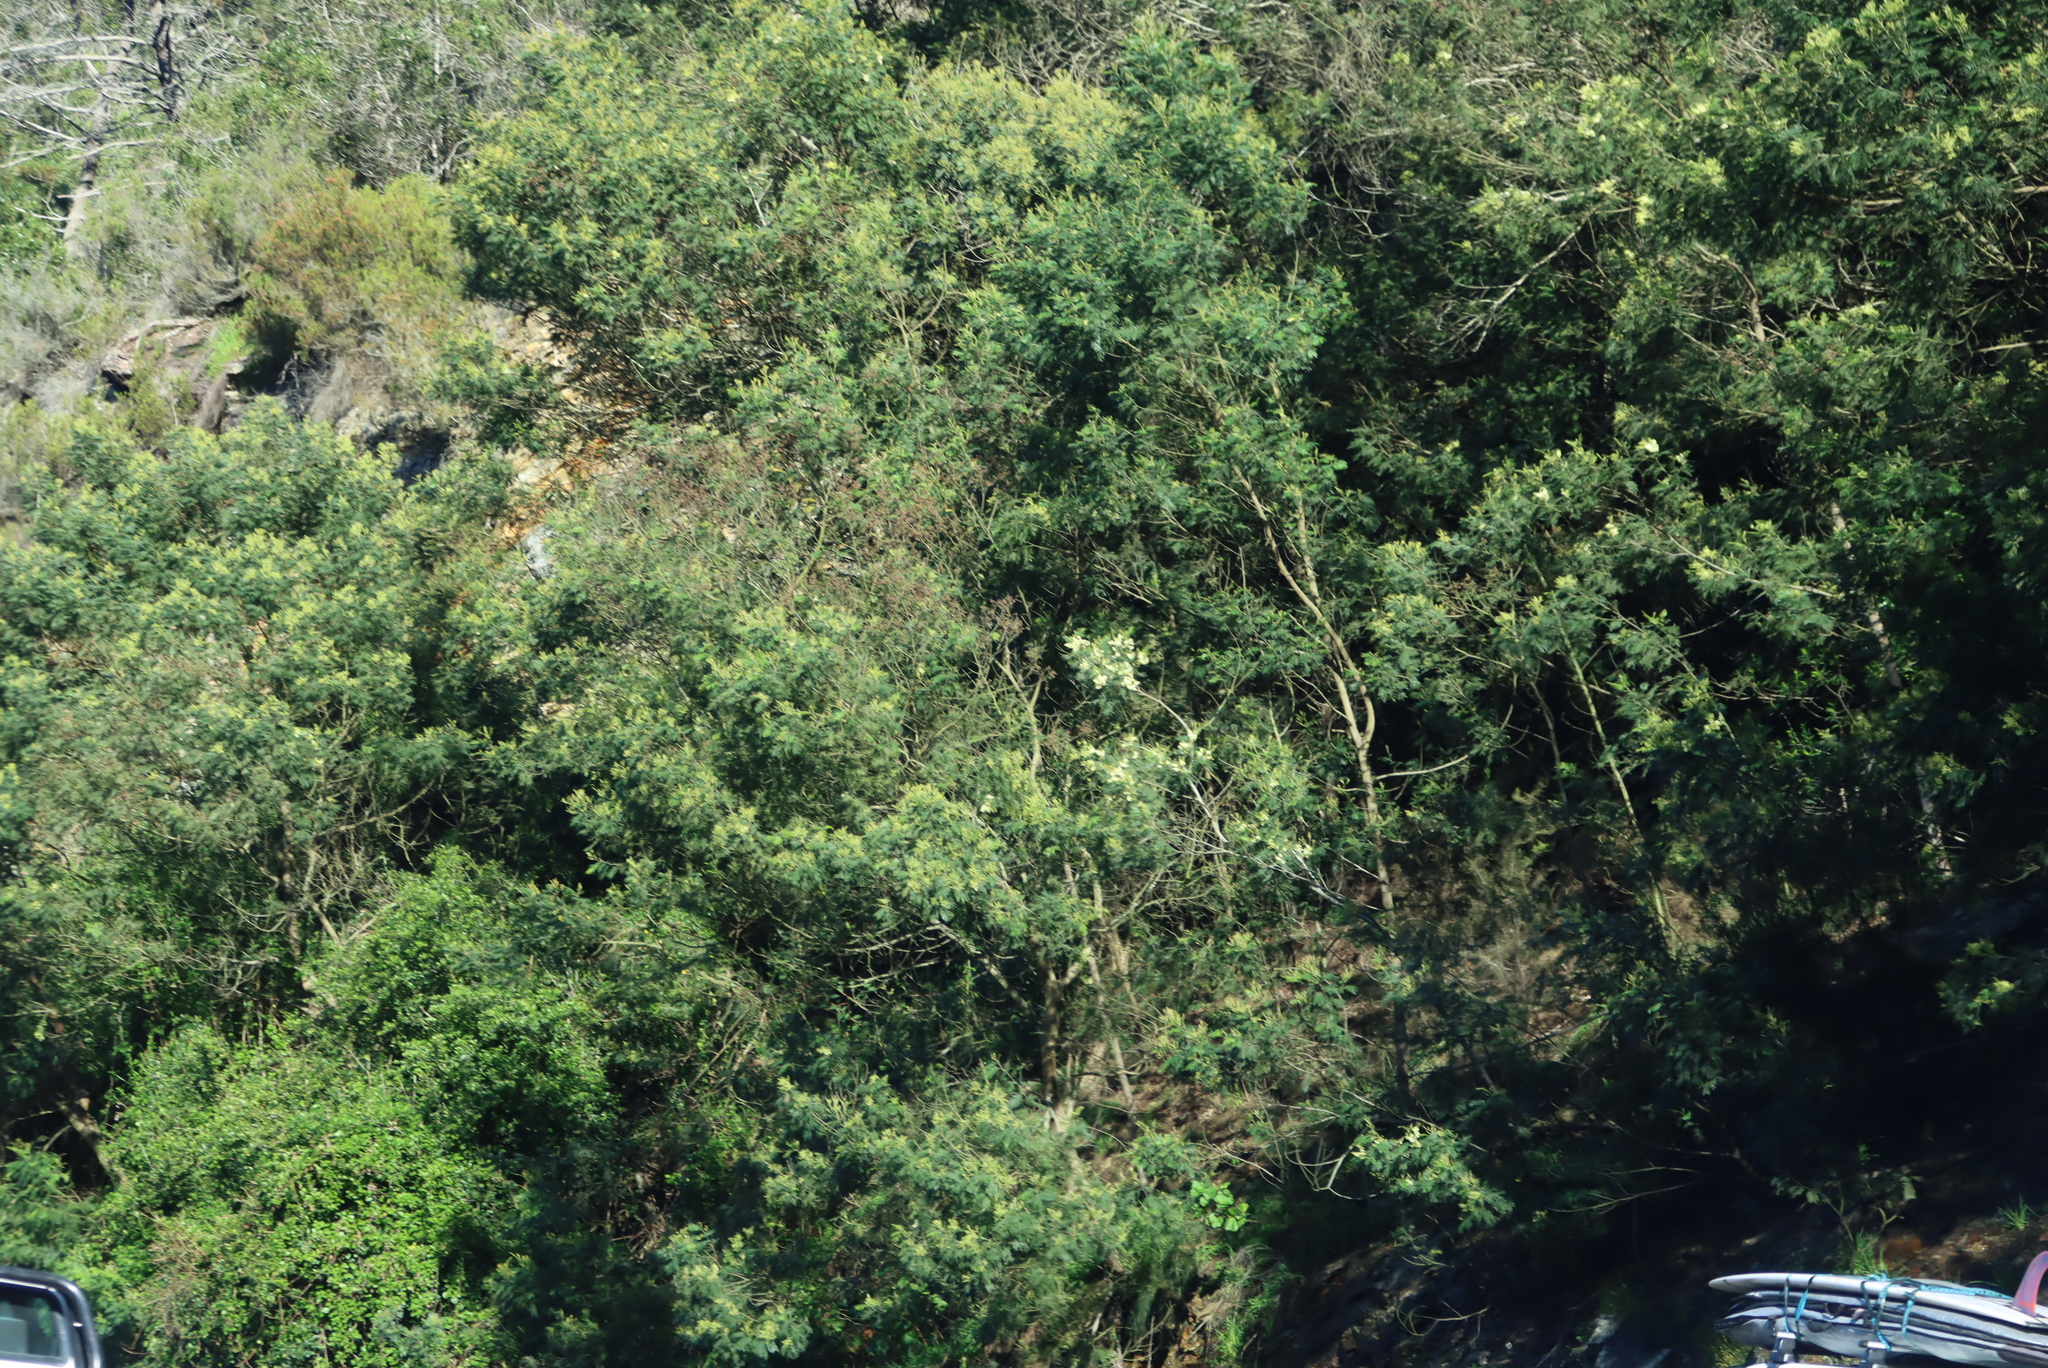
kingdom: Plantae
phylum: Tracheophyta
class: Magnoliopsida
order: Fabales
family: Fabaceae
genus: Acacia
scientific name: Acacia mearnsii
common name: Black wattle
